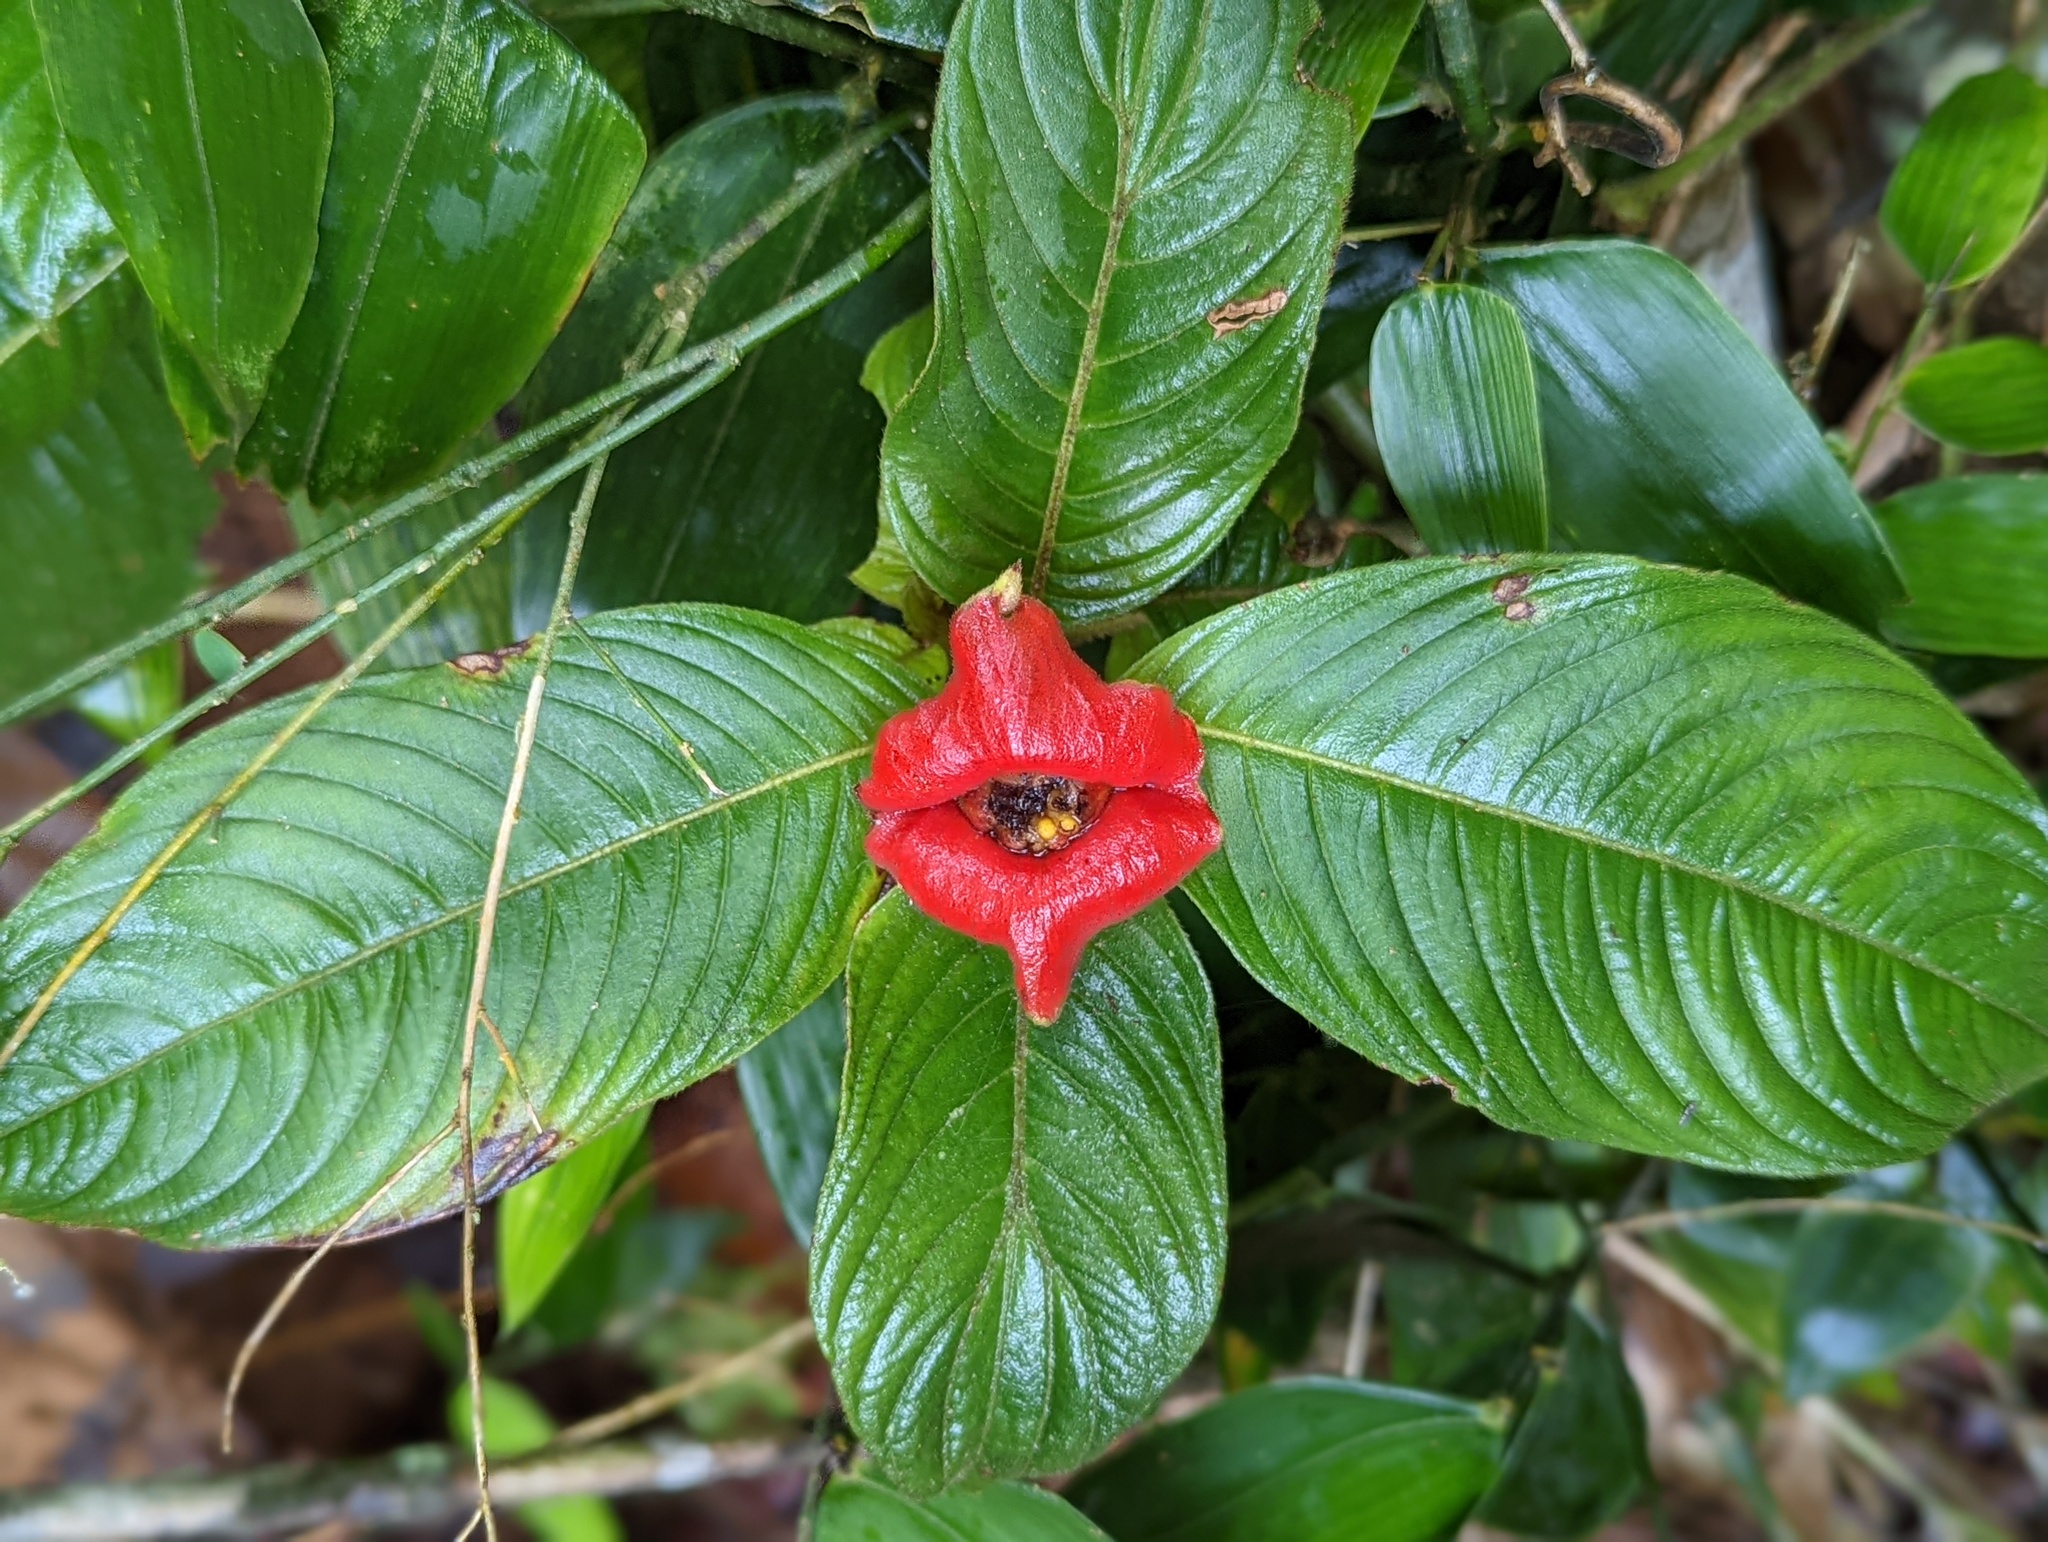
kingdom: Plantae
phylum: Tracheophyta
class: Magnoliopsida
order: Gentianales
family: Rubiaceae
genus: Palicourea
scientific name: Palicourea tomentosa
